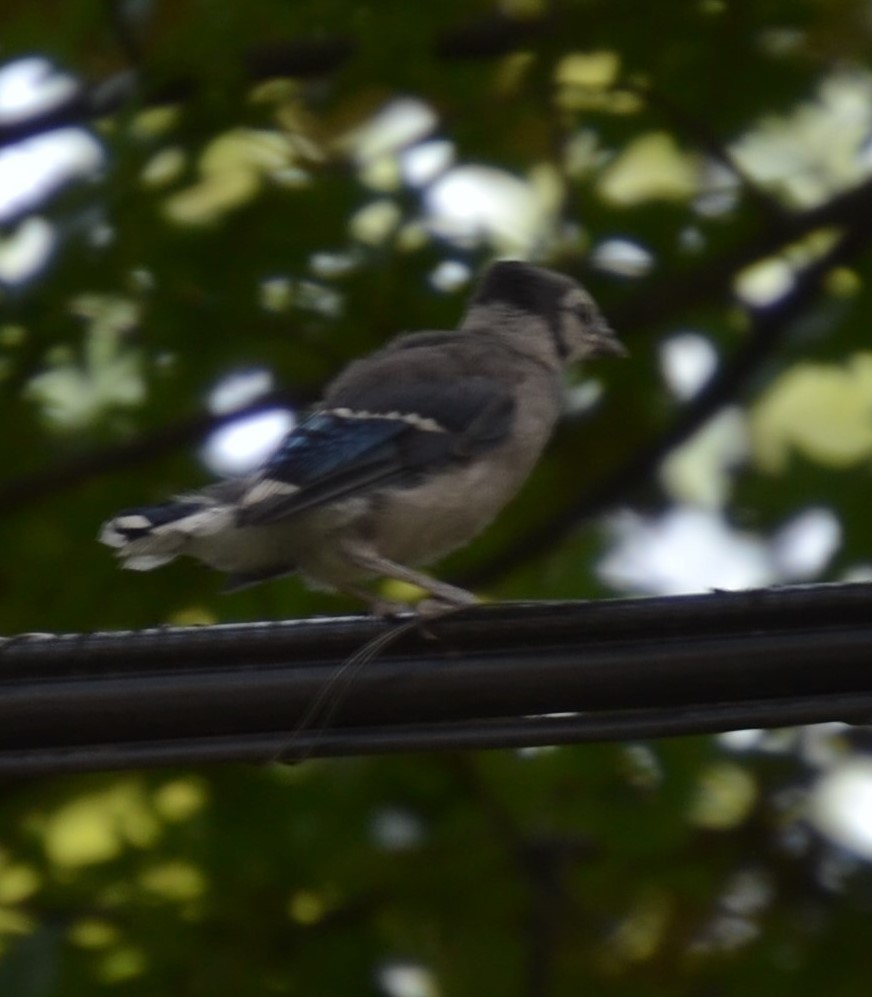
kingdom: Animalia
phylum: Chordata
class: Aves
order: Passeriformes
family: Corvidae
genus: Cyanocitta
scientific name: Cyanocitta cristata
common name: Blue jay
